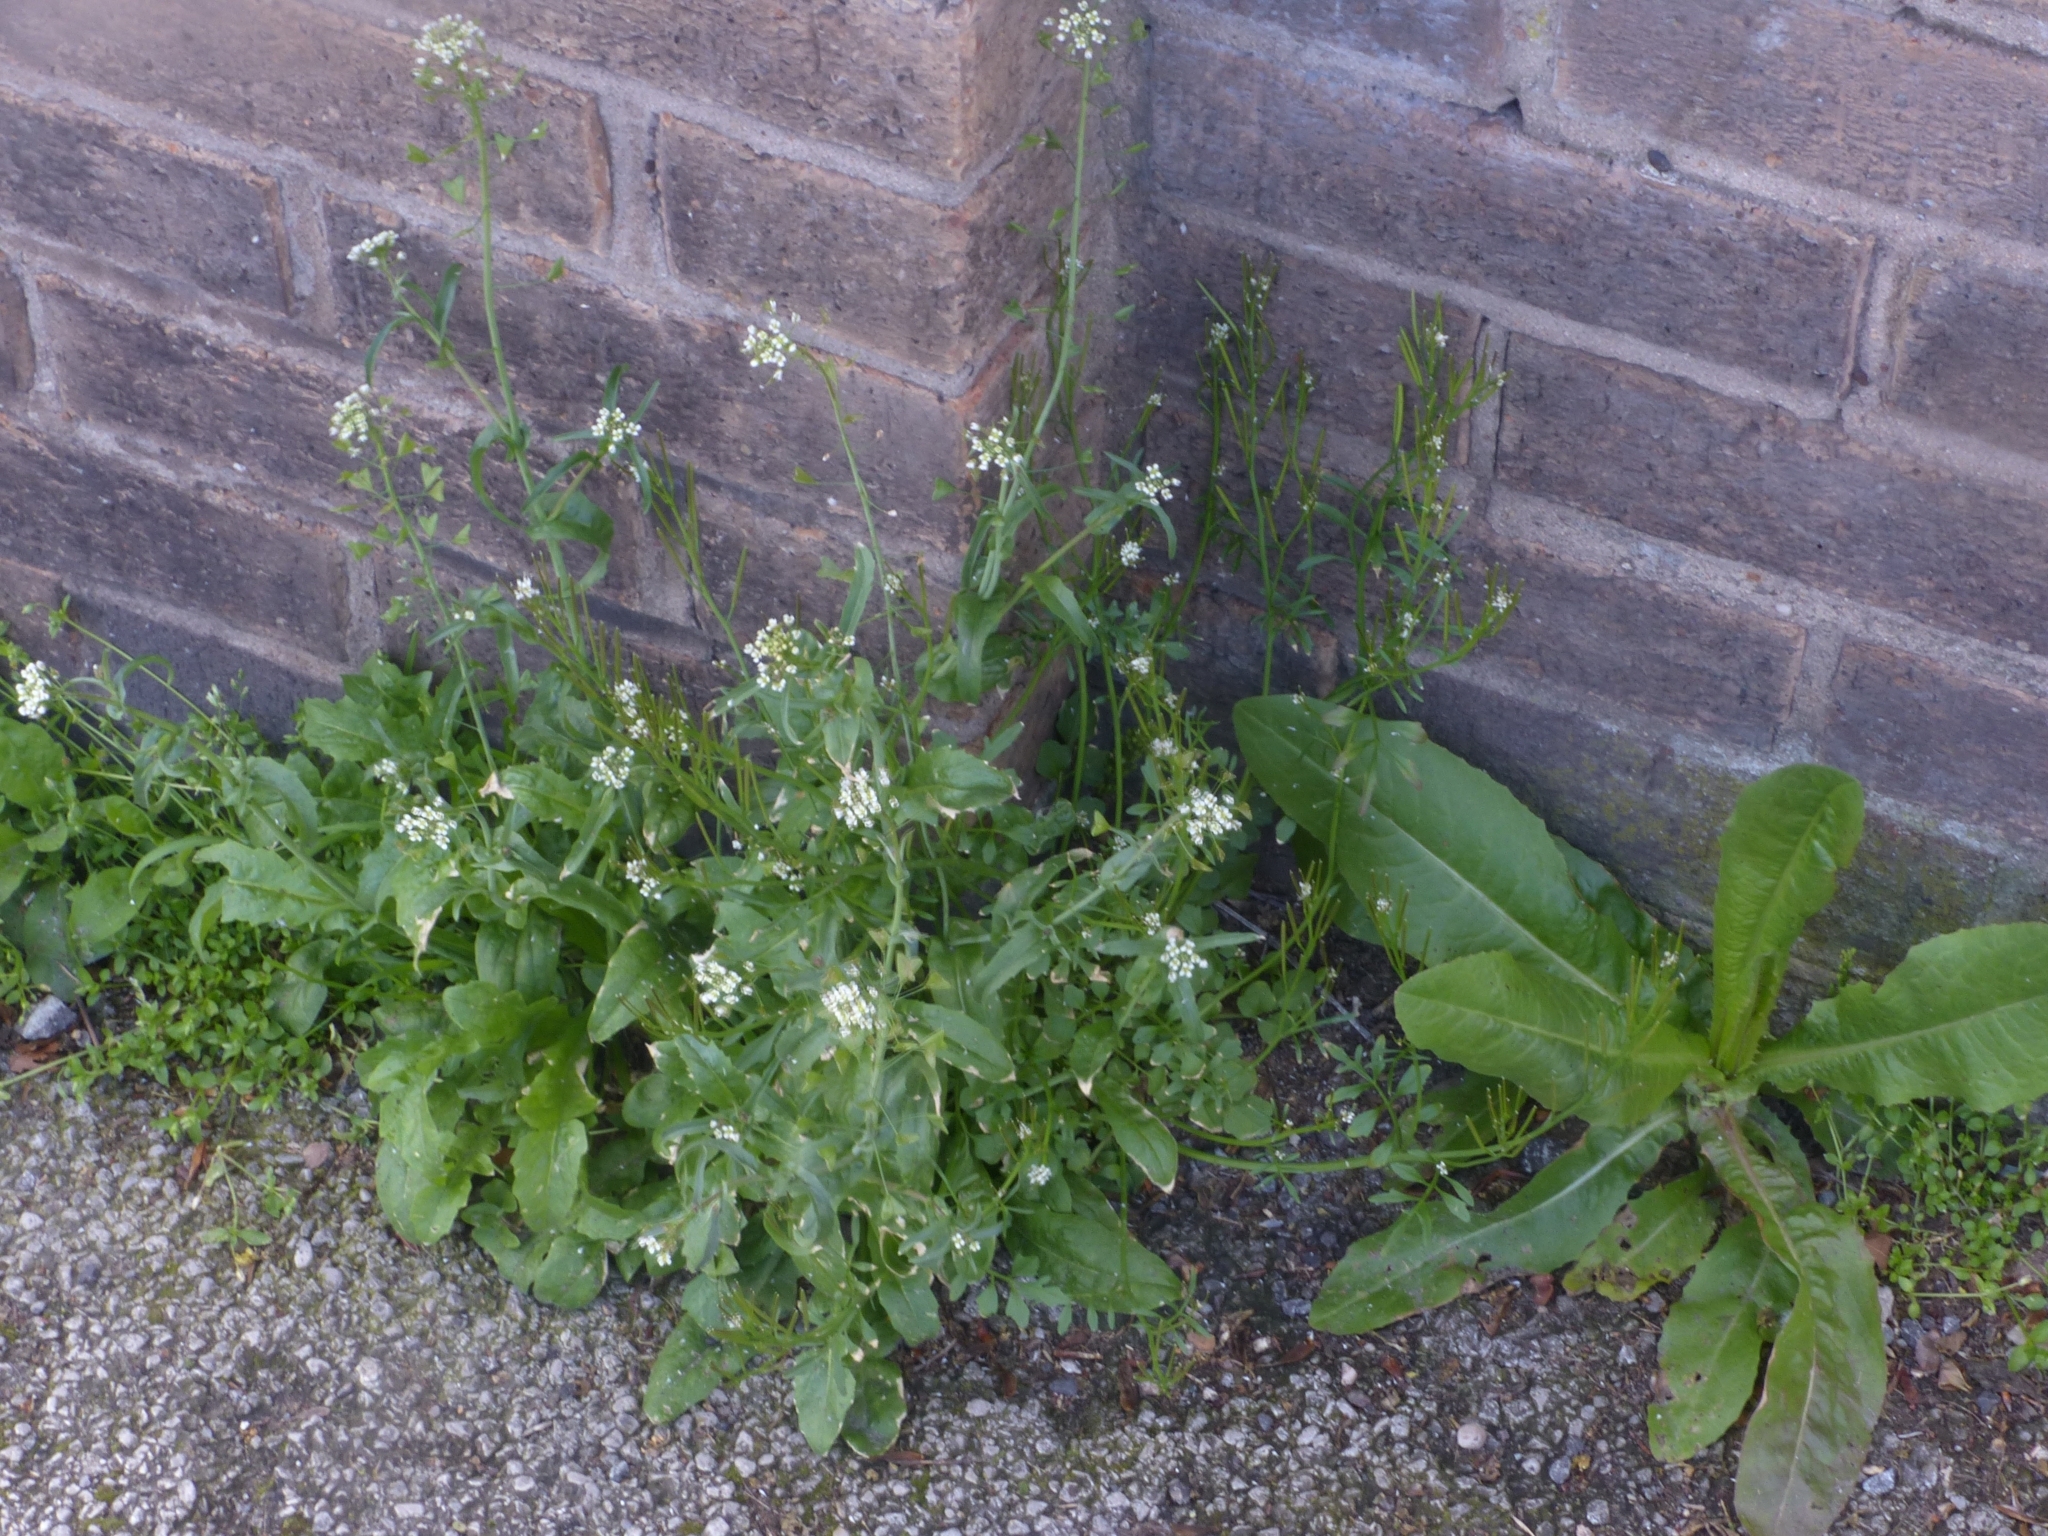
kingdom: Plantae
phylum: Tracheophyta
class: Magnoliopsida
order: Brassicales
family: Brassicaceae
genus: Capsella
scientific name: Capsella bursa-pastoris
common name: Shepherd's purse
